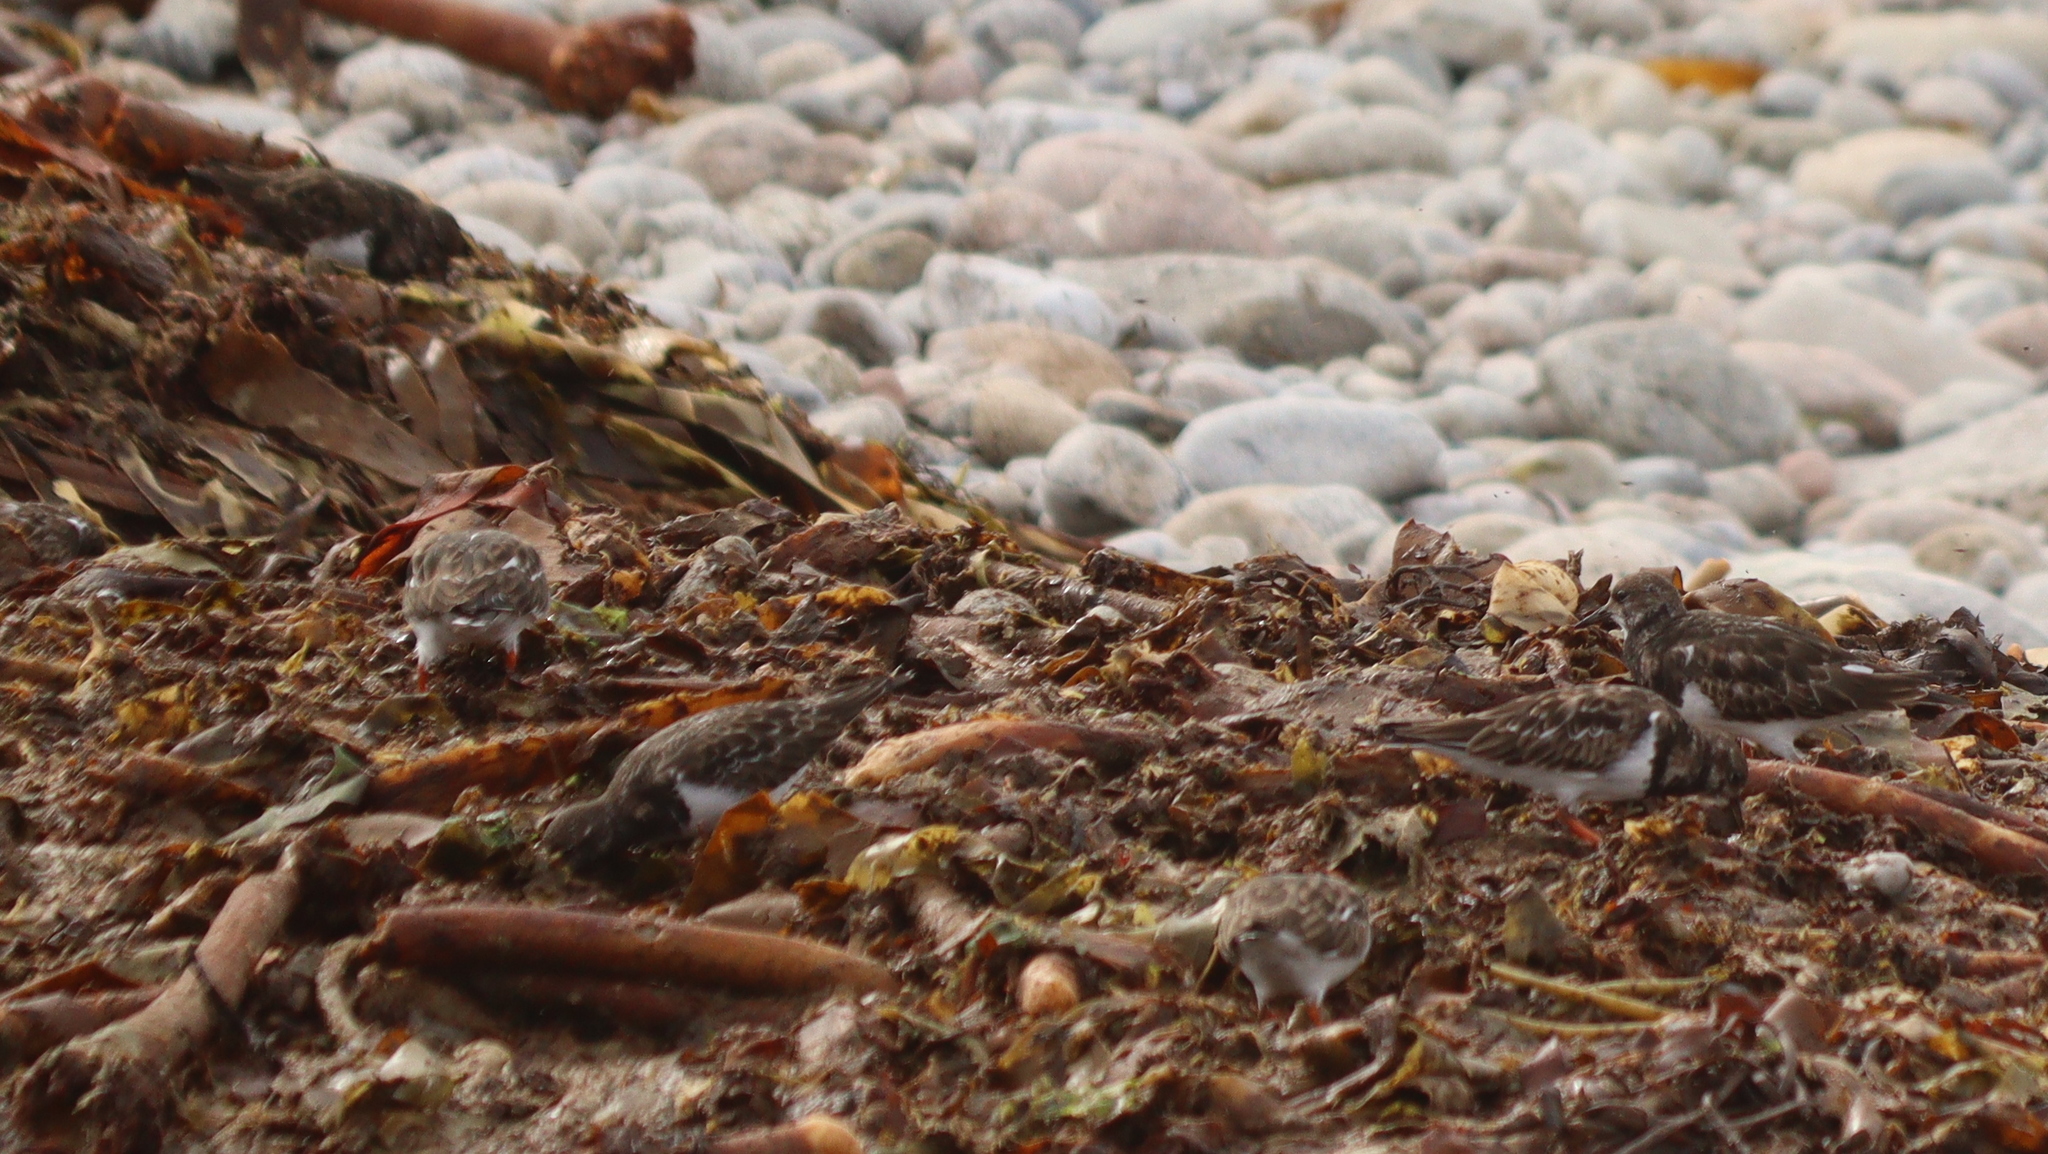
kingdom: Animalia
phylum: Chordata
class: Aves
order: Charadriiformes
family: Scolopacidae
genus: Arenaria
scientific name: Arenaria interpres
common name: Ruddy turnstone
